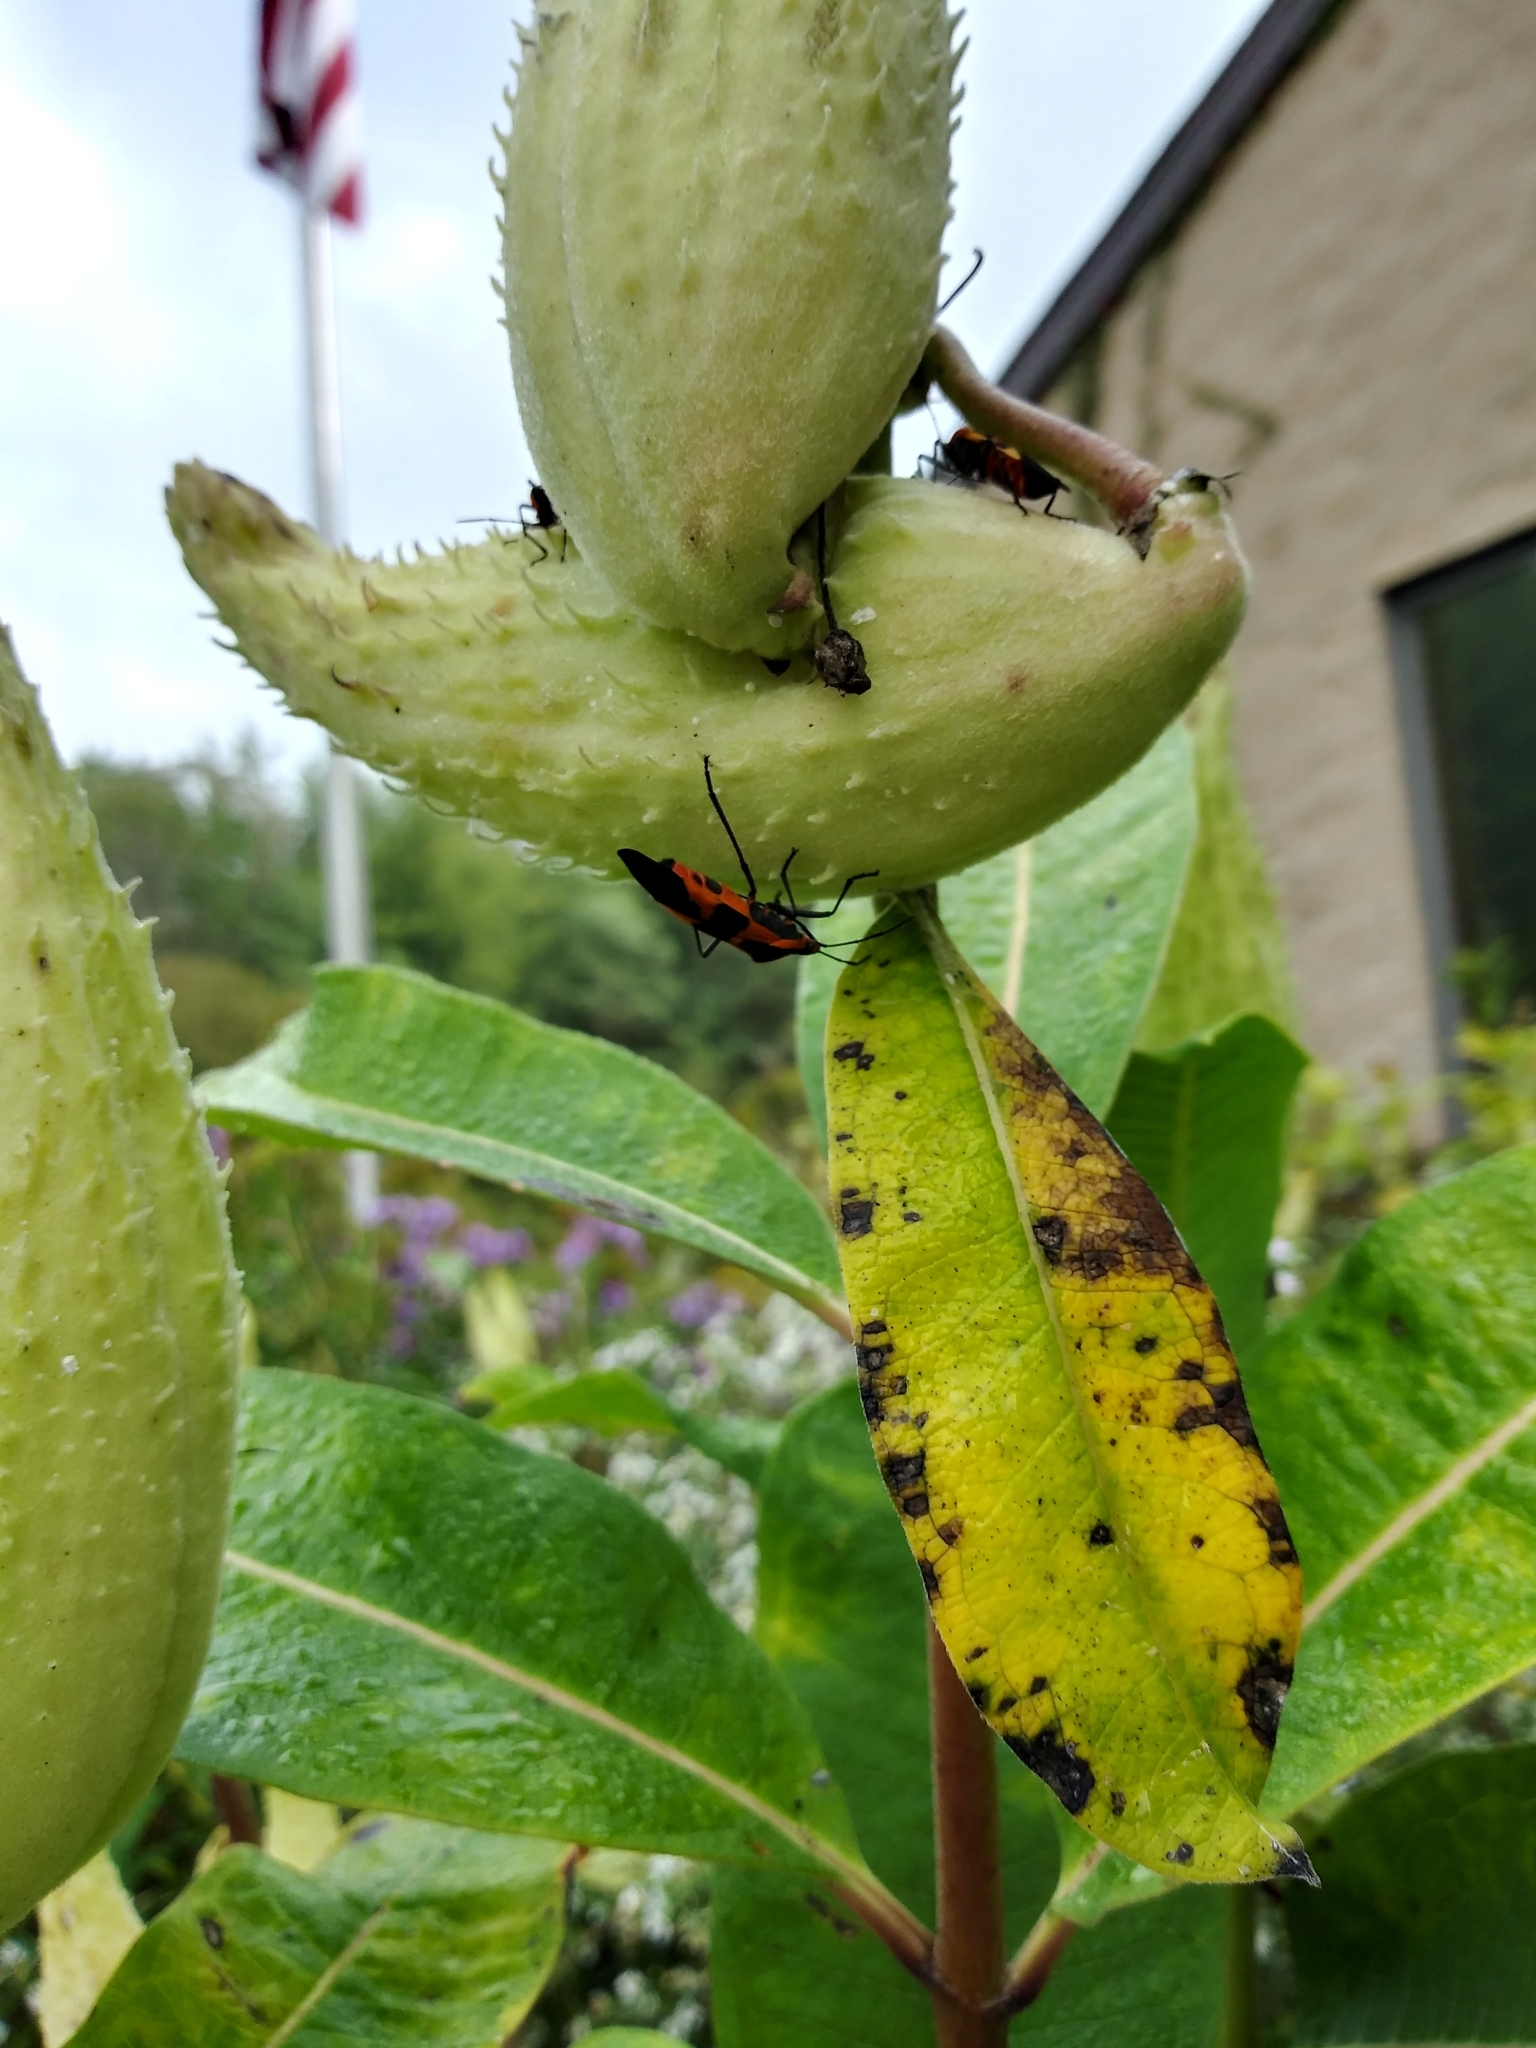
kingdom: Animalia
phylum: Arthropoda
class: Insecta
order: Hemiptera
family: Lygaeidae
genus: Oncopeltus
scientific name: Oncopeltus fasciatus
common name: Large milkweed bug
